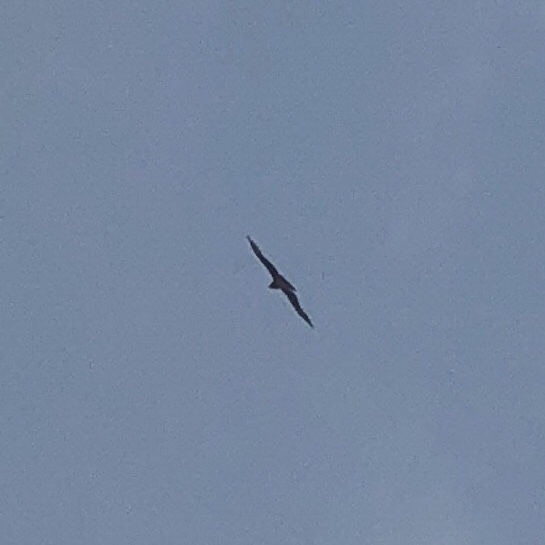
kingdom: Animalia
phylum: Chordata
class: Aves
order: Accipitriformes
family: Accipitridae
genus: Milvus
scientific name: Milvus migrans
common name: Black kite
